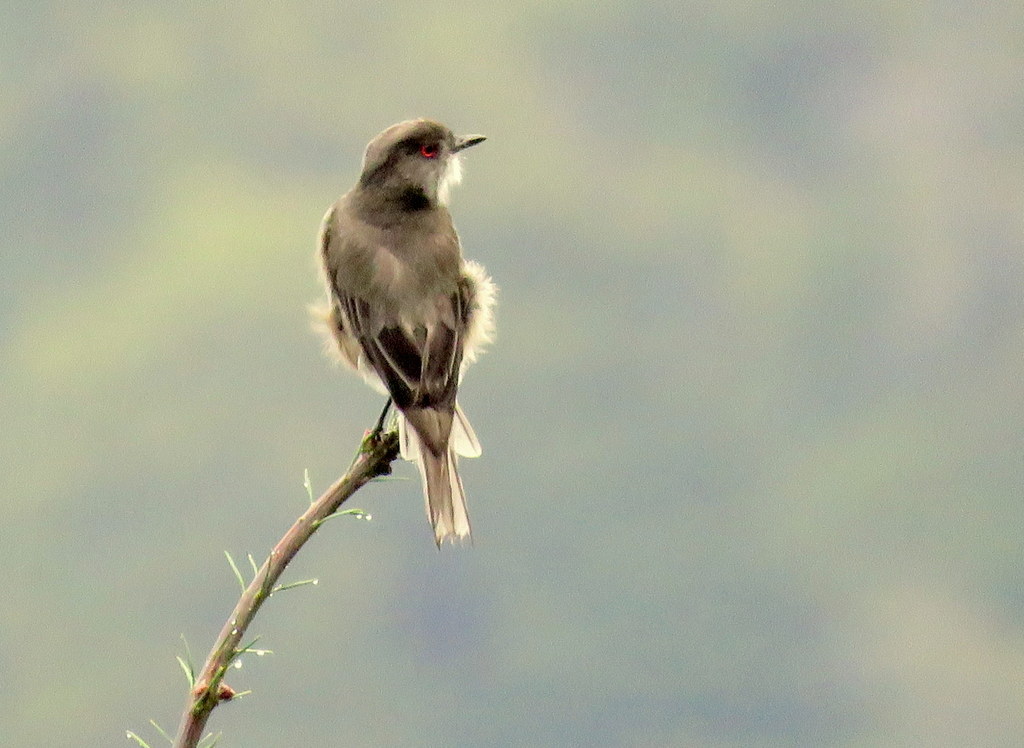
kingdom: Animalia
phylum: Chordata
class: Aves
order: Passeriformes
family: Tyrannidae
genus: Xolmis
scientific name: Xolmis pyrope
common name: Fire-eyed diucon
